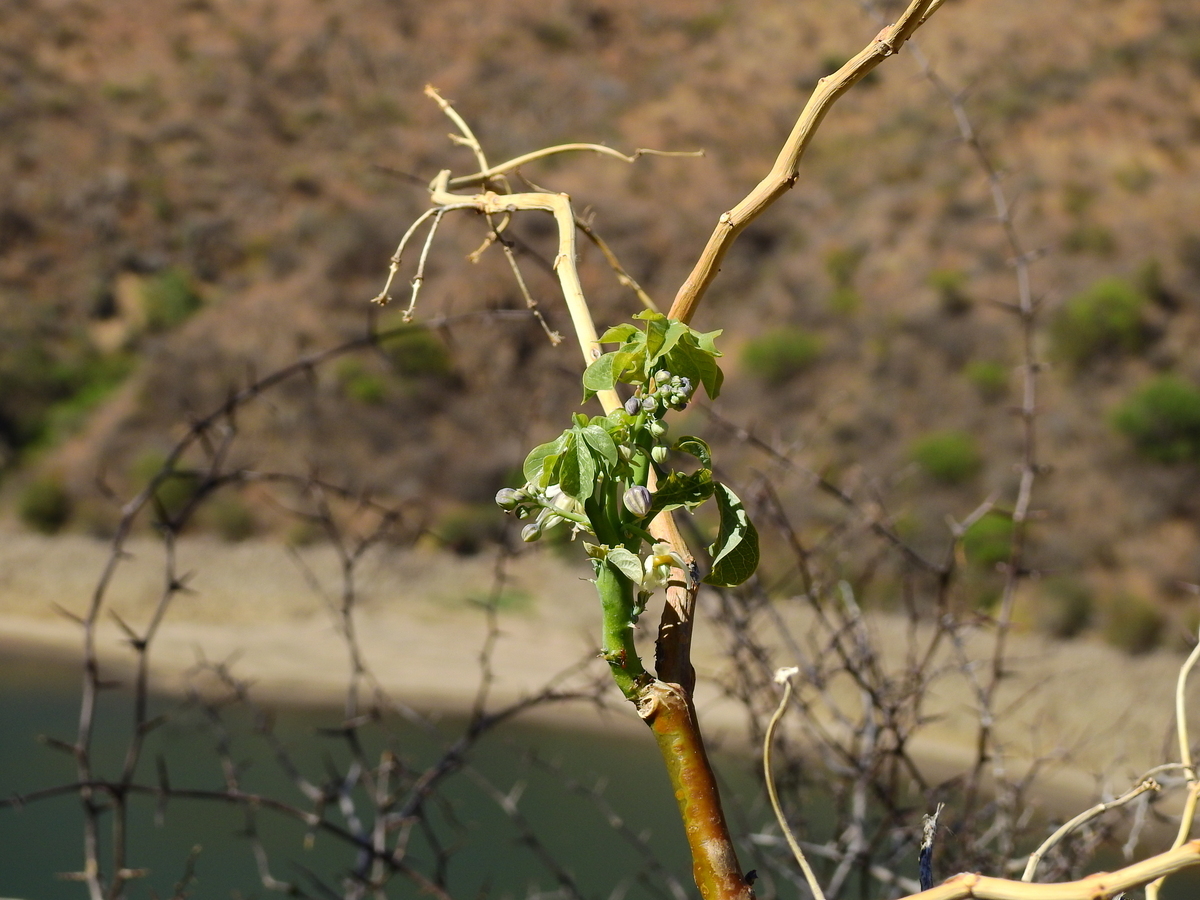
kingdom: Plantae
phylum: Tracheophyta
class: Magnoliopsida
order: Malpighiales
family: Euphorbiaceae
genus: Manihot
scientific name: Manihot anisophylla
